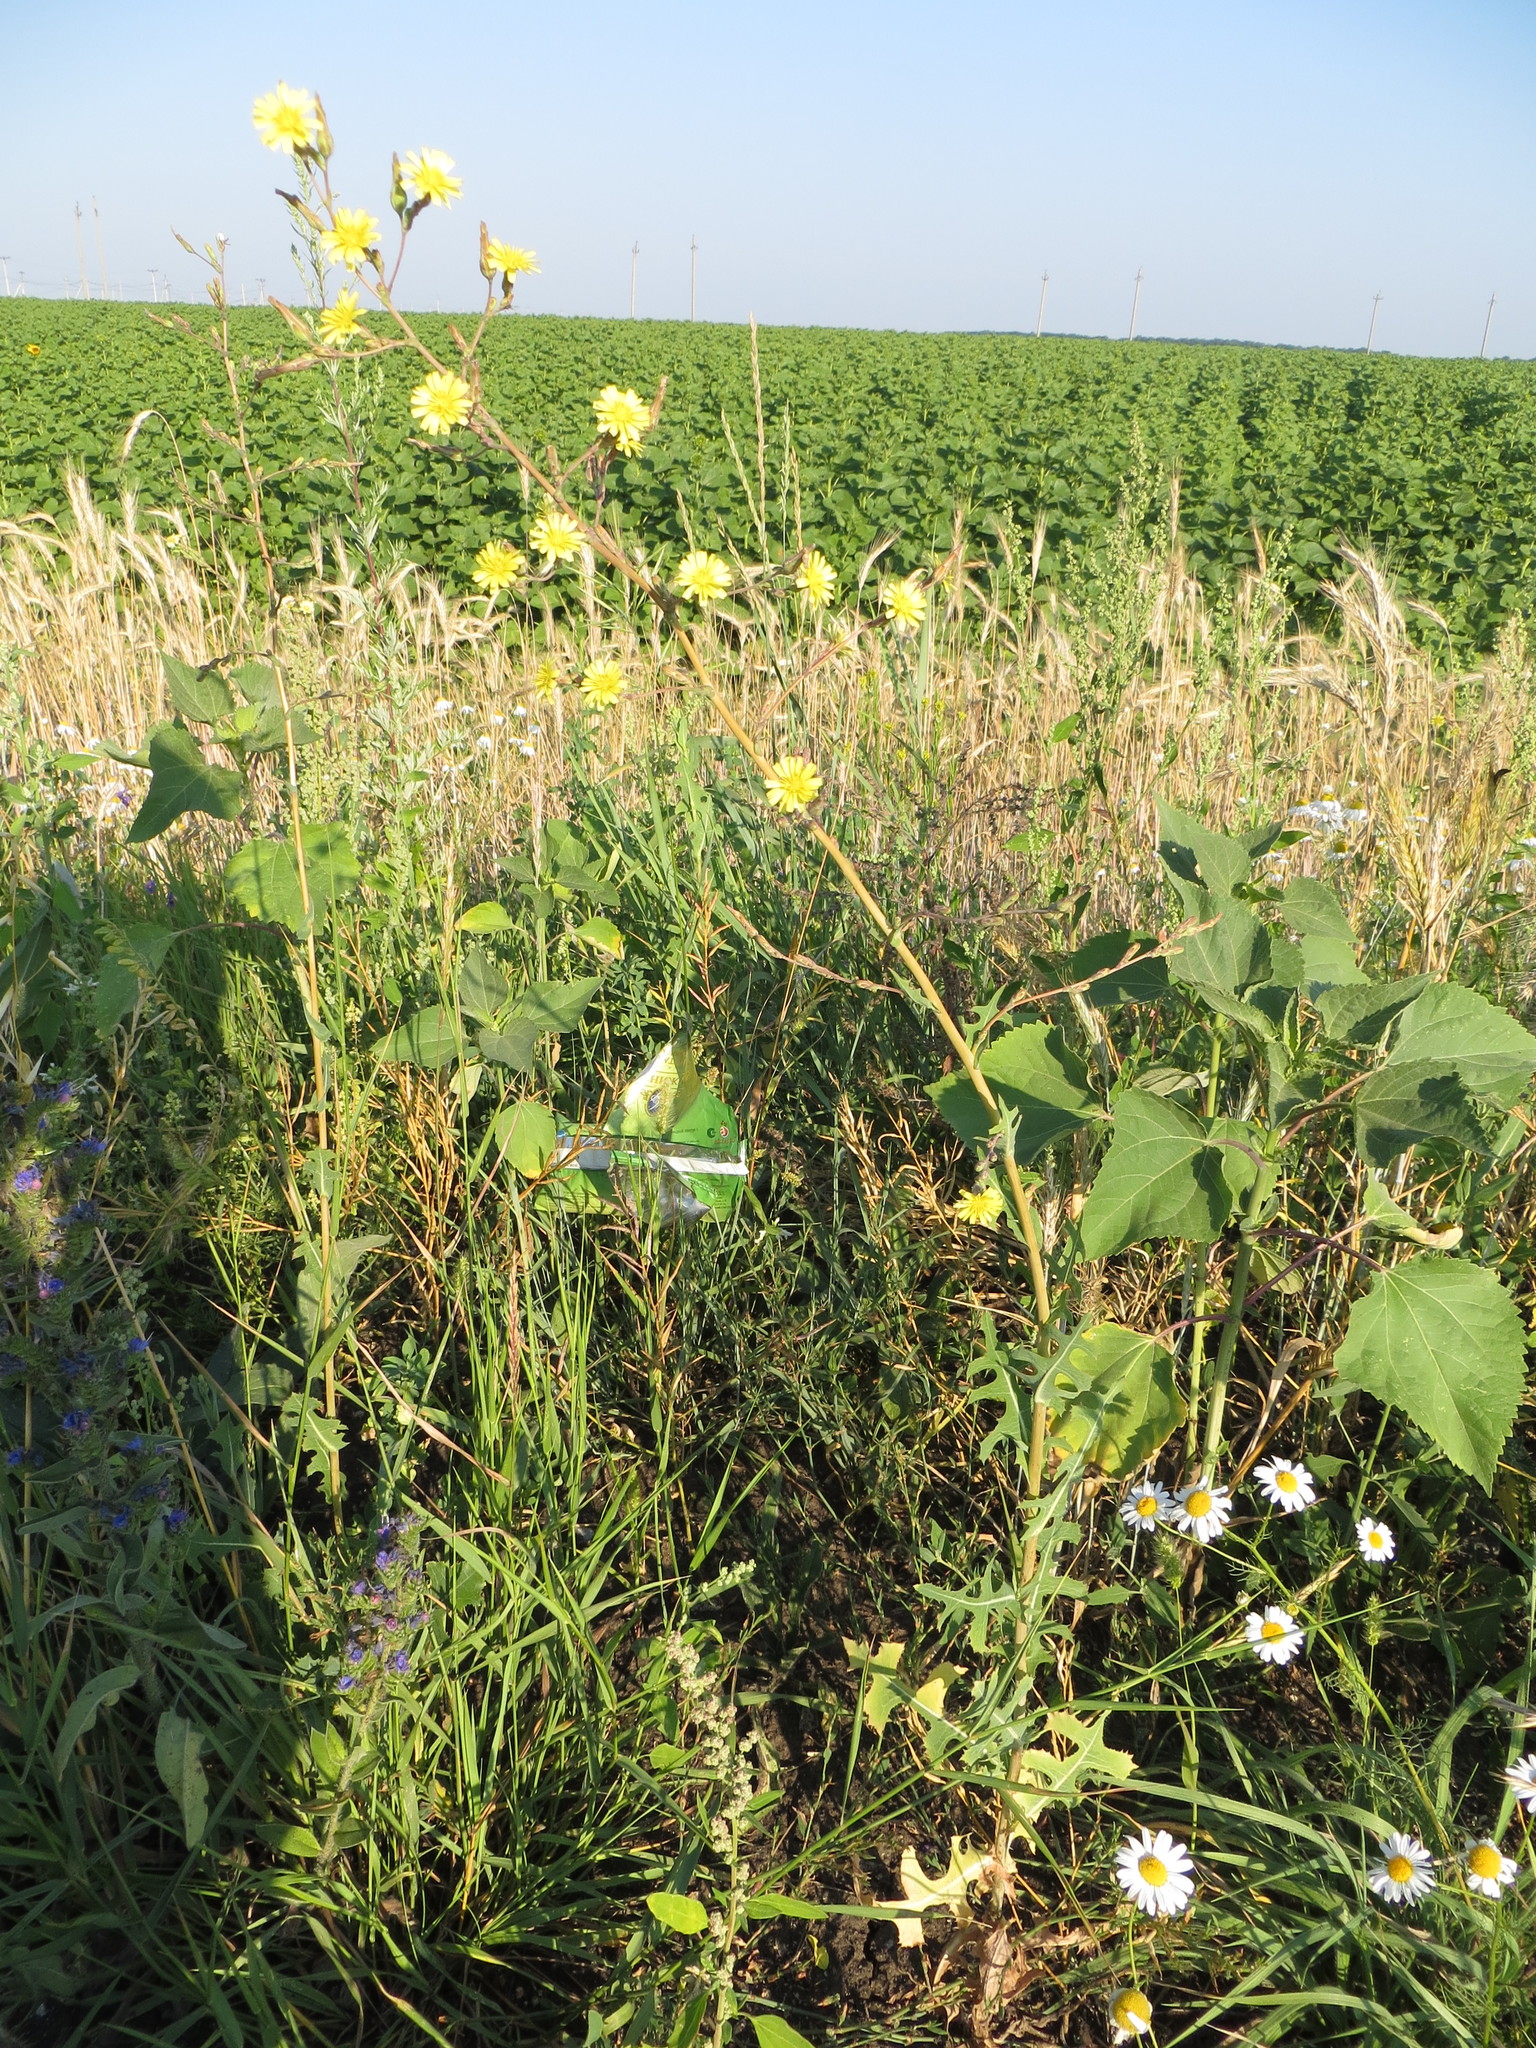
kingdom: Plantae
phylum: Tracheophyta
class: Magnoliopsida
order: Asterales
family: Asteraceae
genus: Lactuca
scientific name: Lactuca serriola
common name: Prickly lettuce
